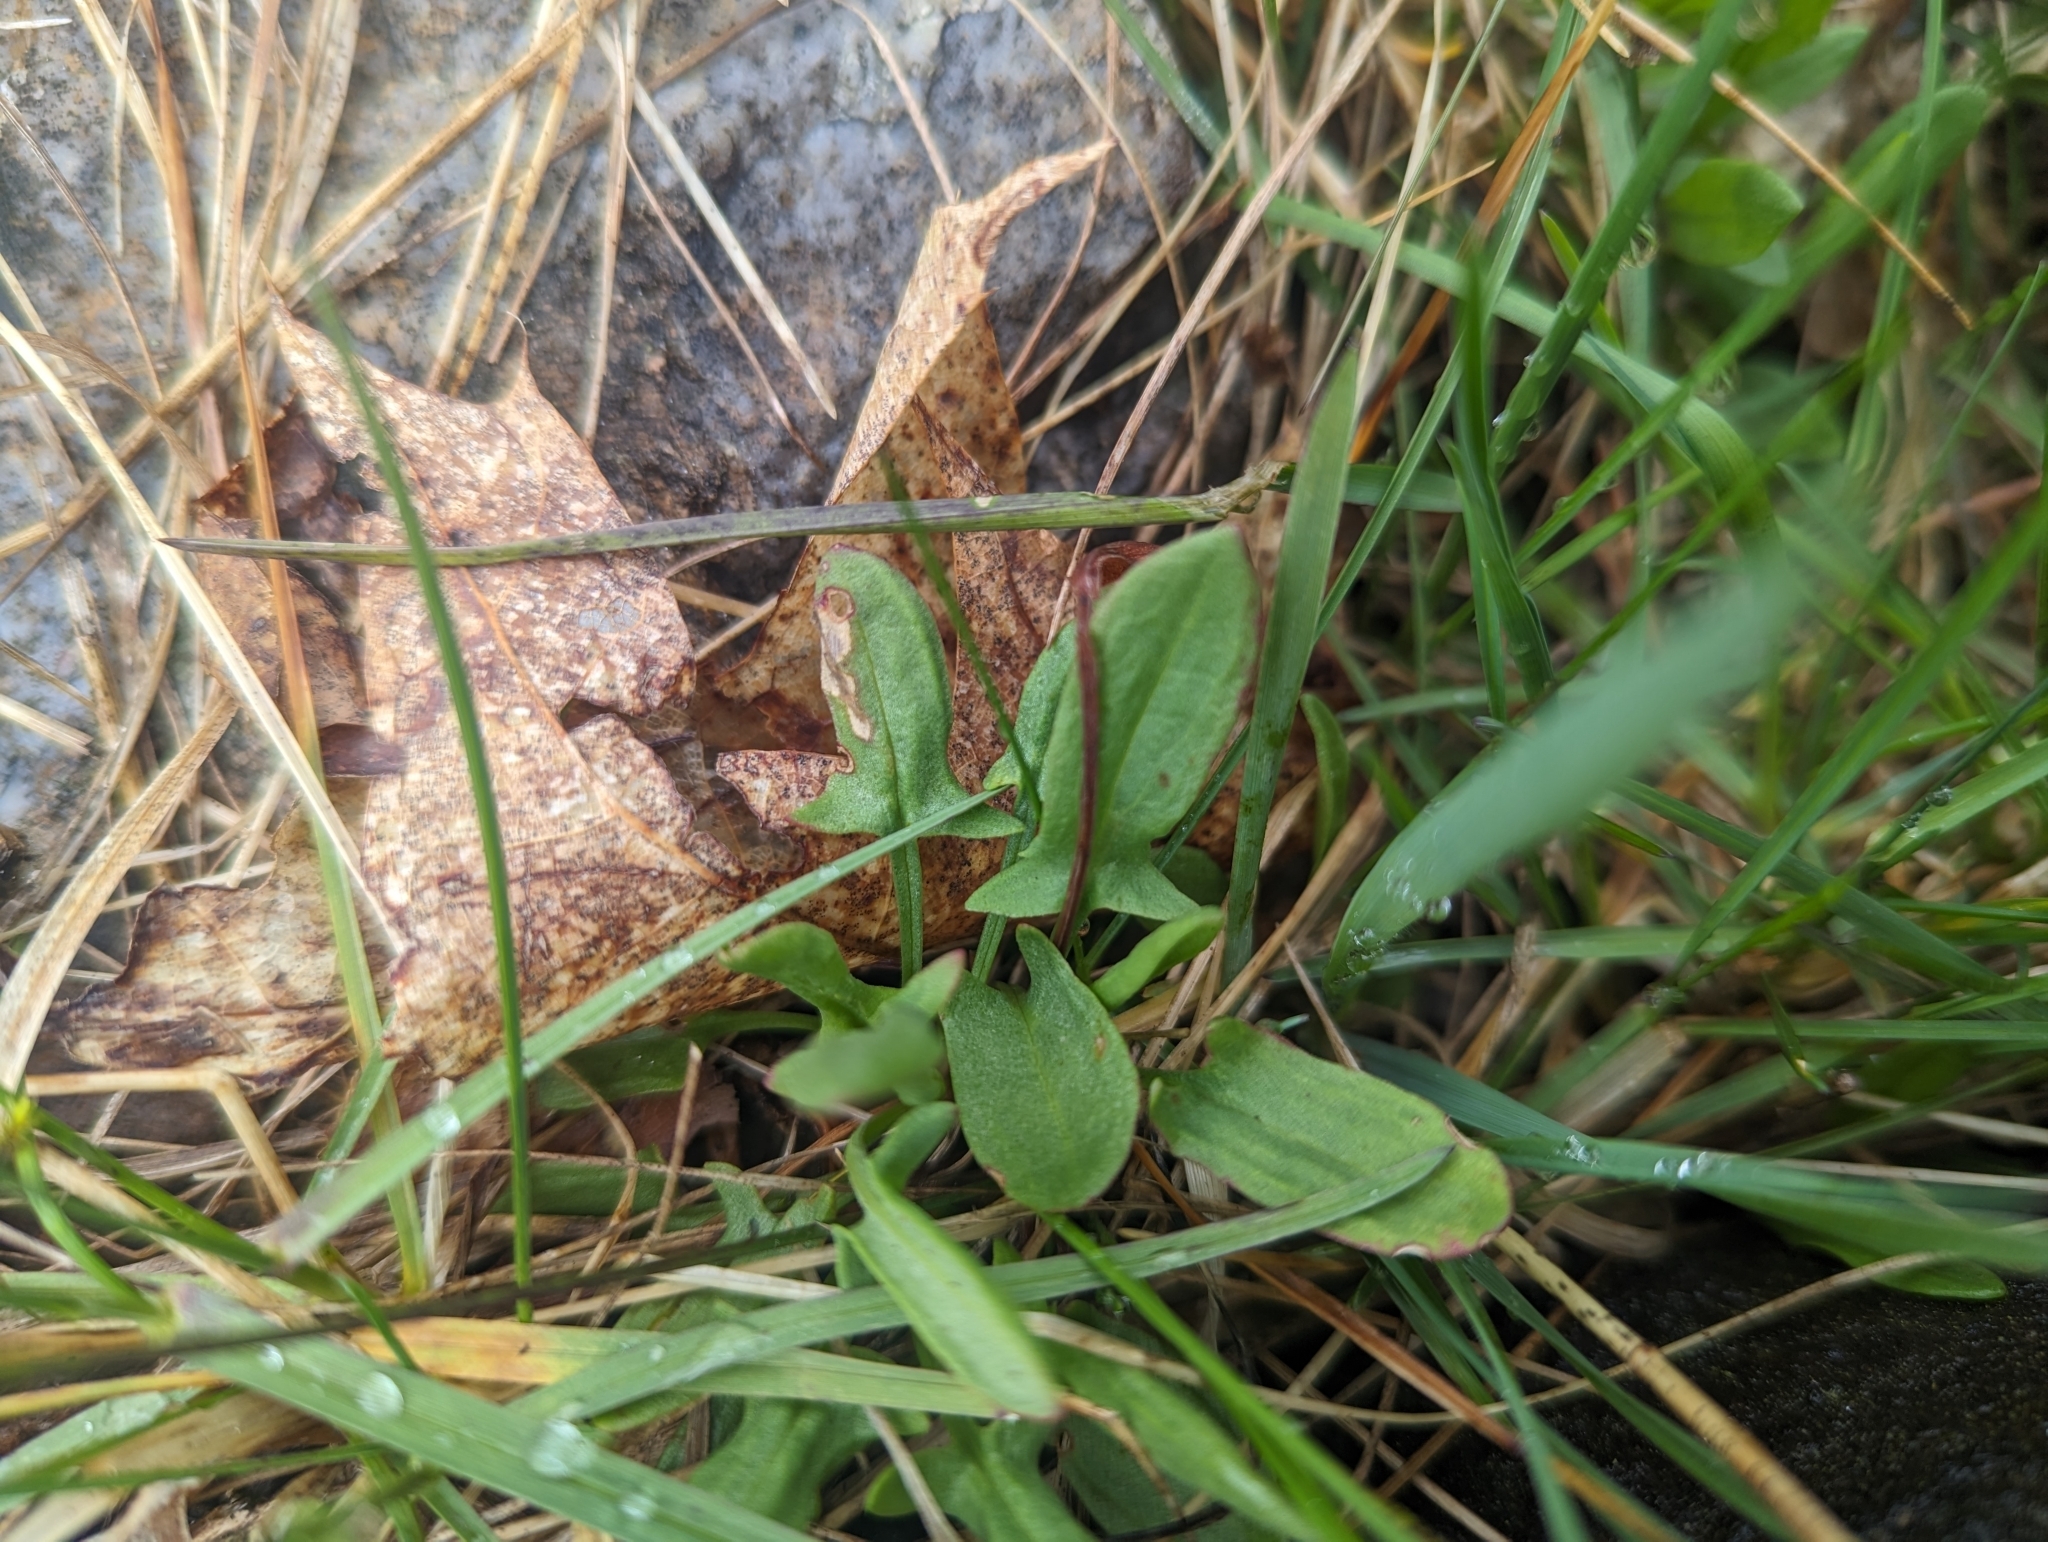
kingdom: Plantae
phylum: Tracheophyta
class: Magnoliopsida
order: Caryophyllales
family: Polygonaceae
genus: Rumex
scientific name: Rumex acetosella
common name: Common sheep sorrel
